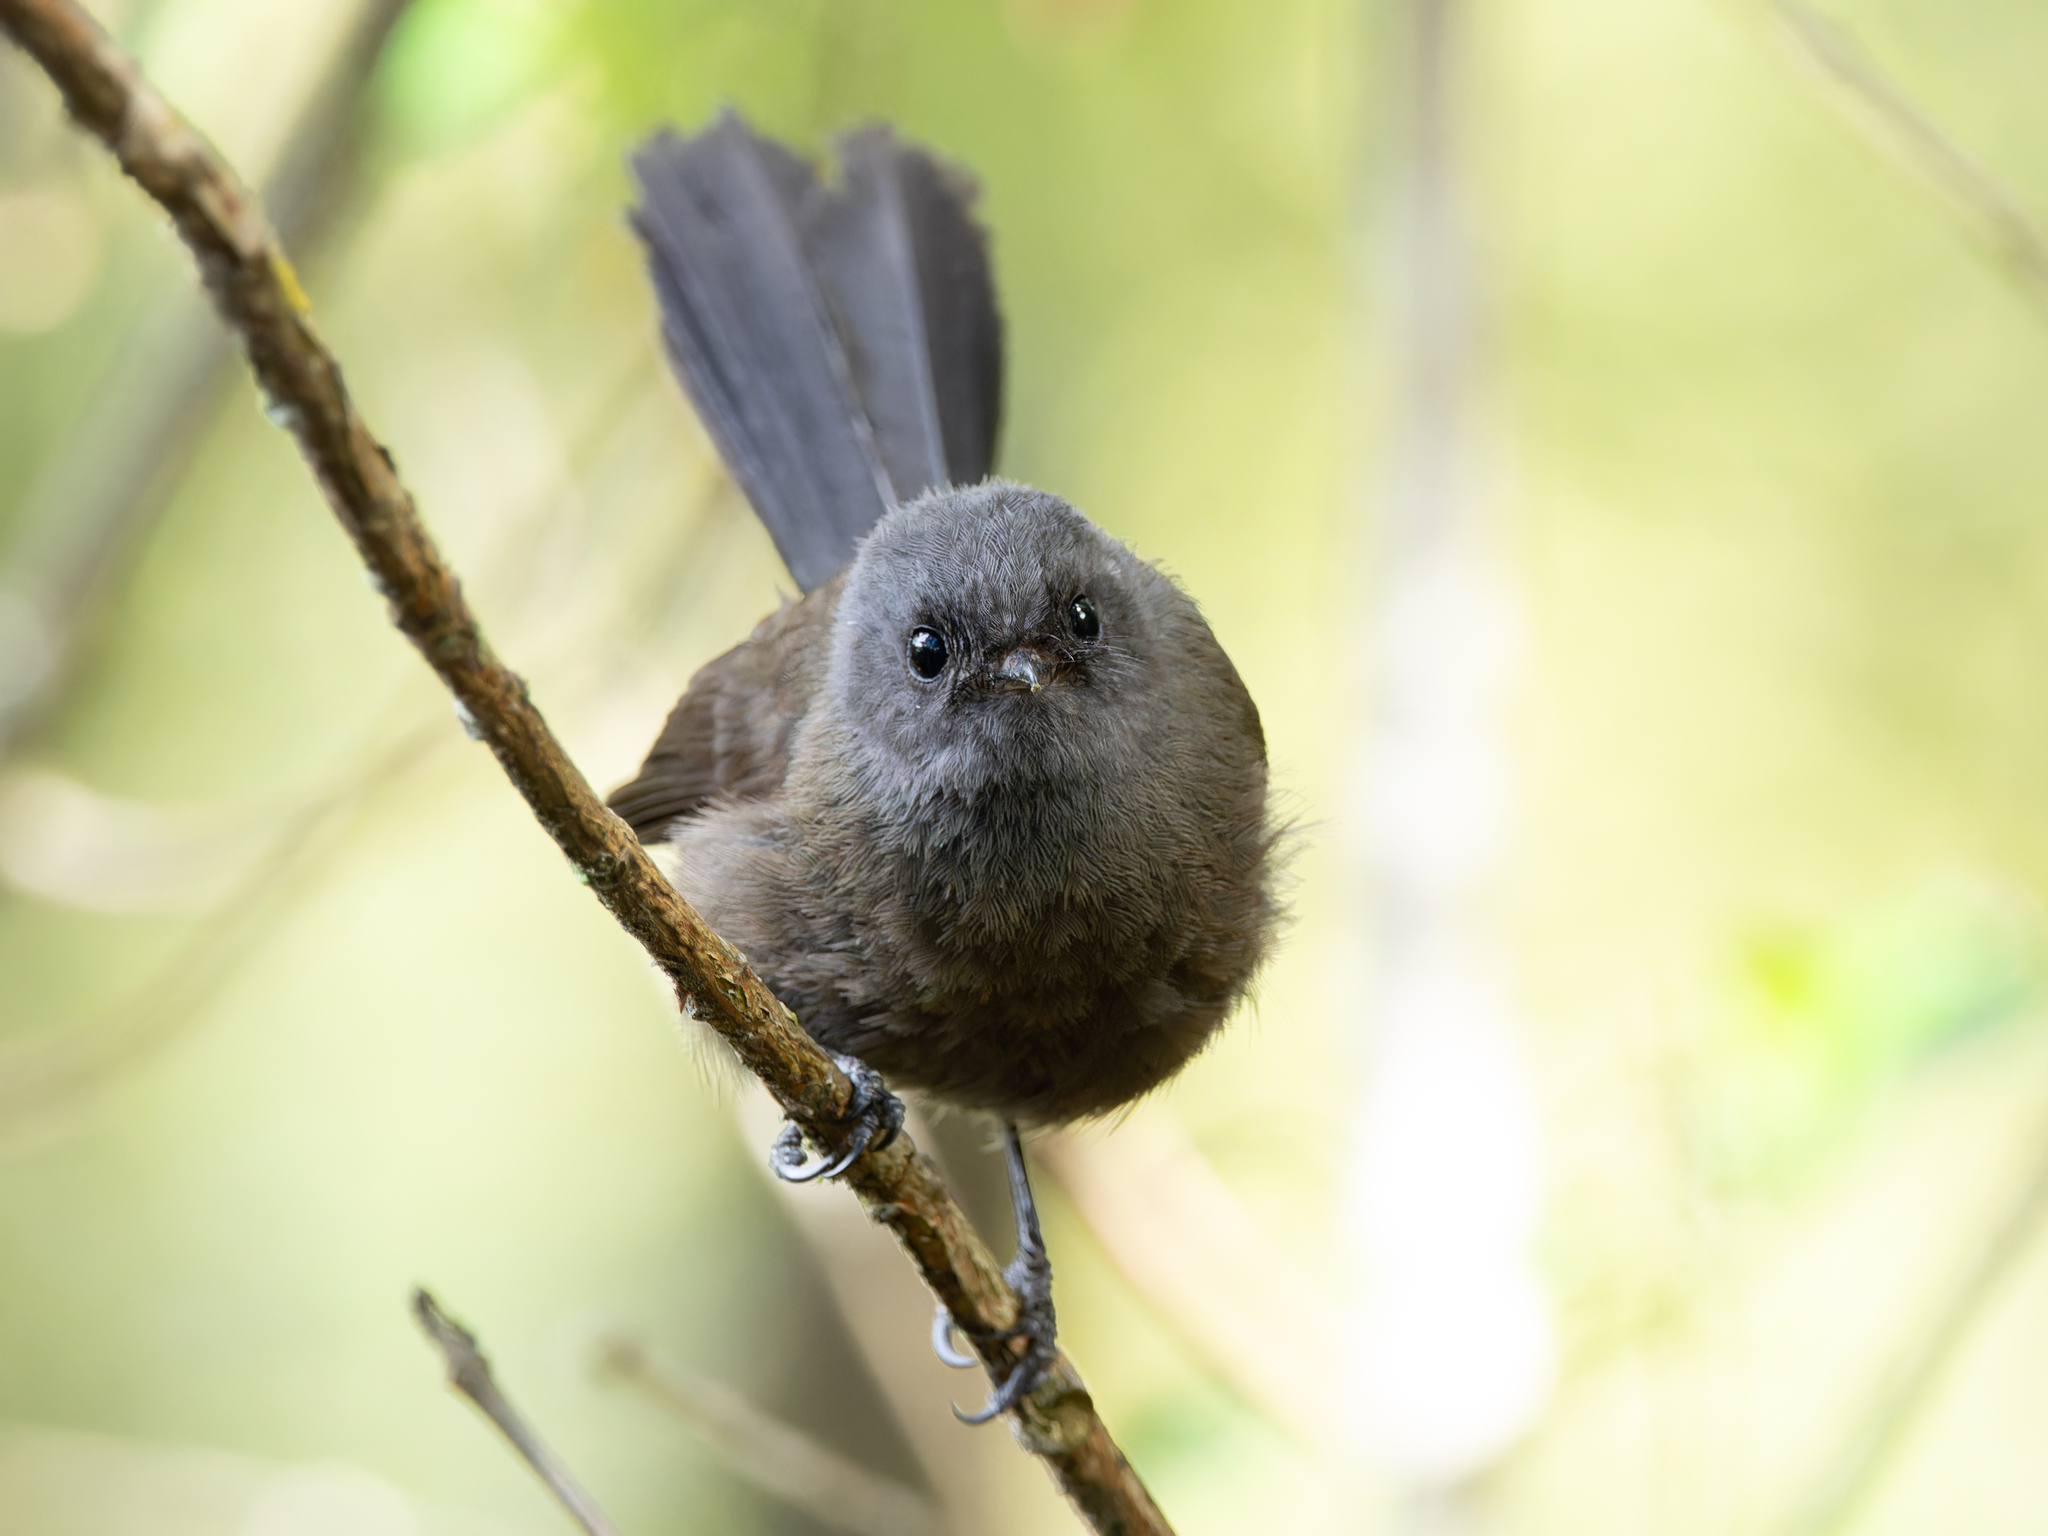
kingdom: Animalia
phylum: Chordata
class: Aves
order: Passeriformes
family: Rhipiduridae
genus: Rhipidura
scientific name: Rhipidura fuliginosa
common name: New zealand fantail
